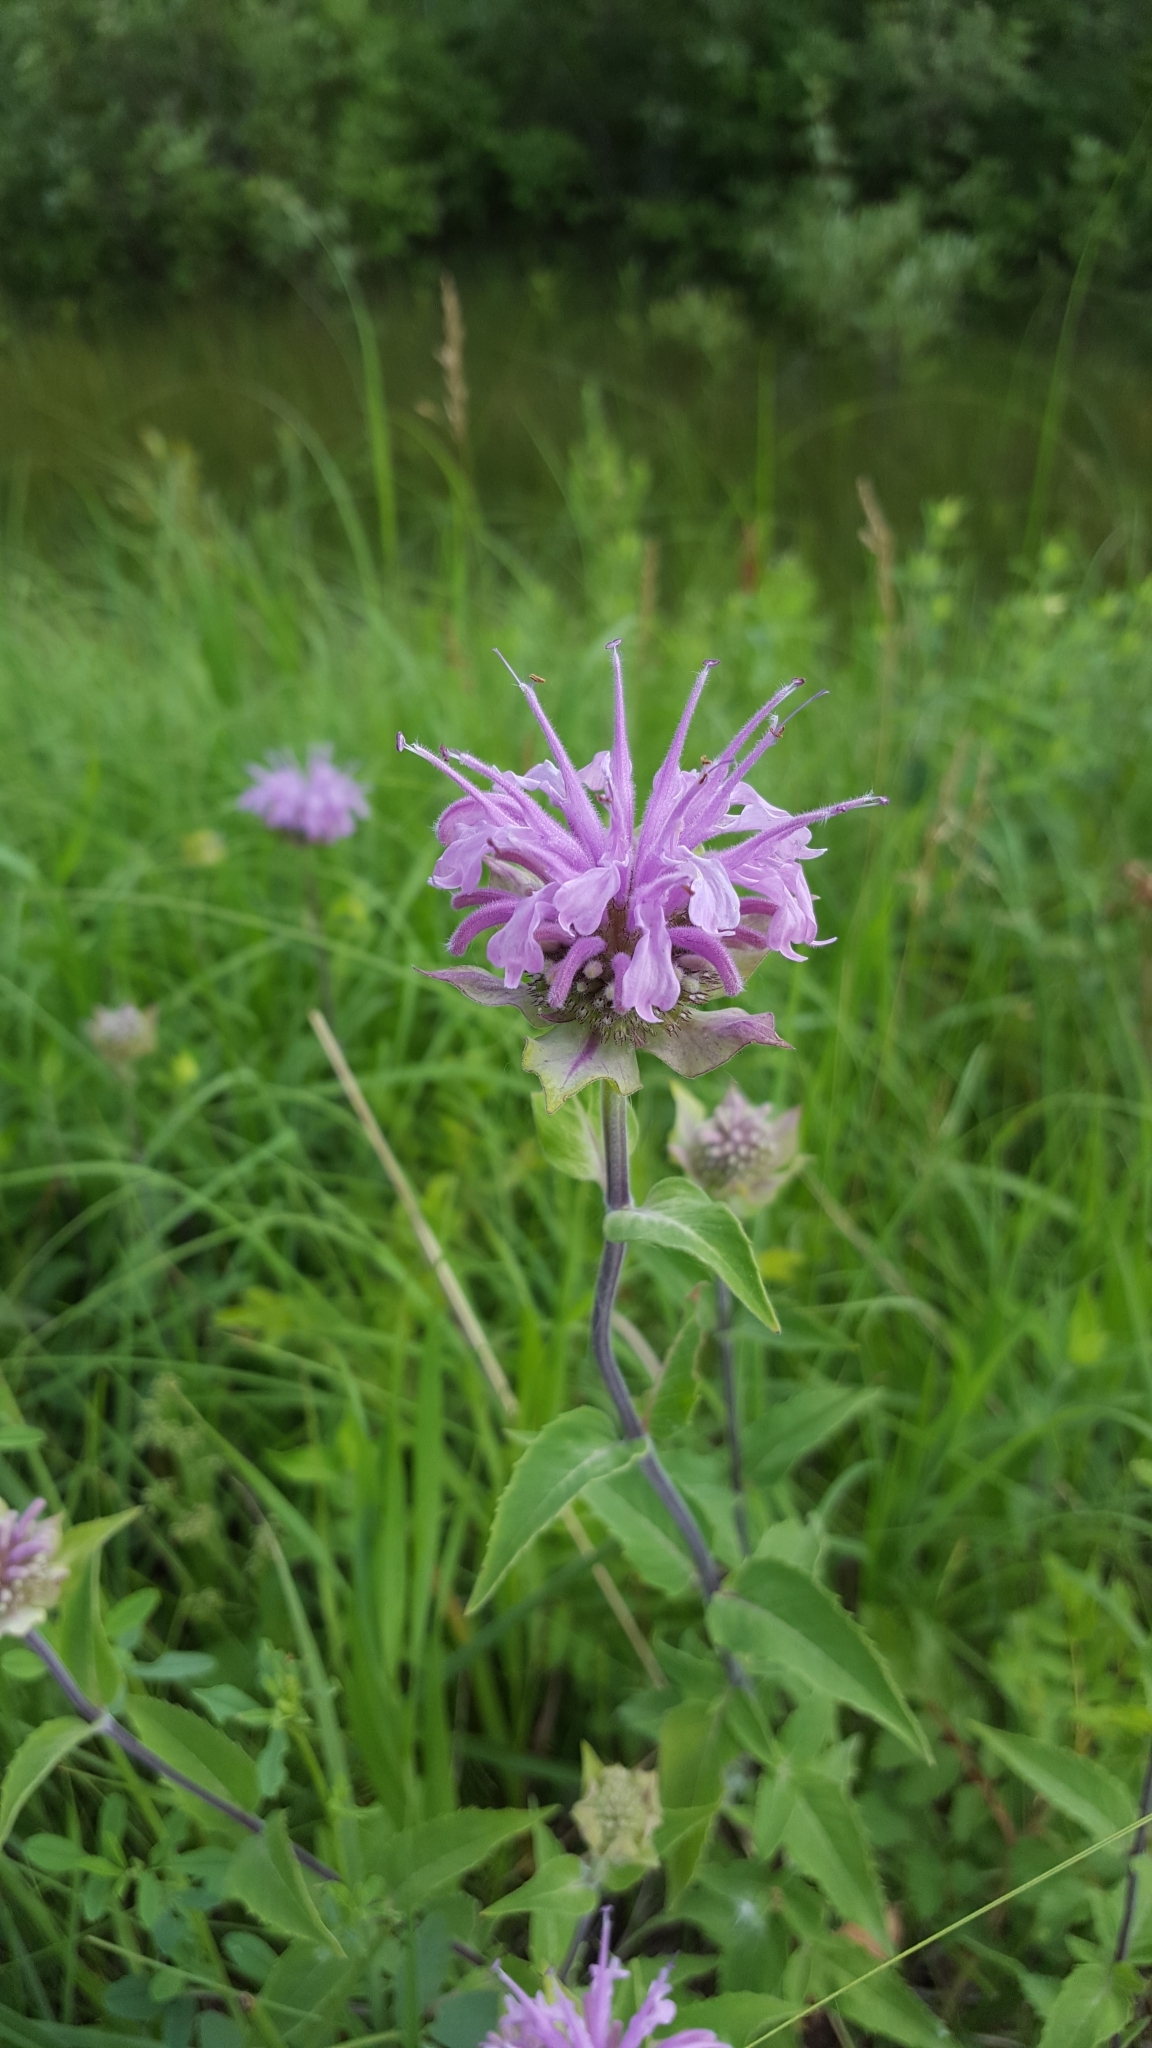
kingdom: Plantae
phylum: Tracheophyta
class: Magnoliopsida
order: Lamiales
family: Lamiaceae
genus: Monarda
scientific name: Monarda fistulosa
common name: Purple beebalm
